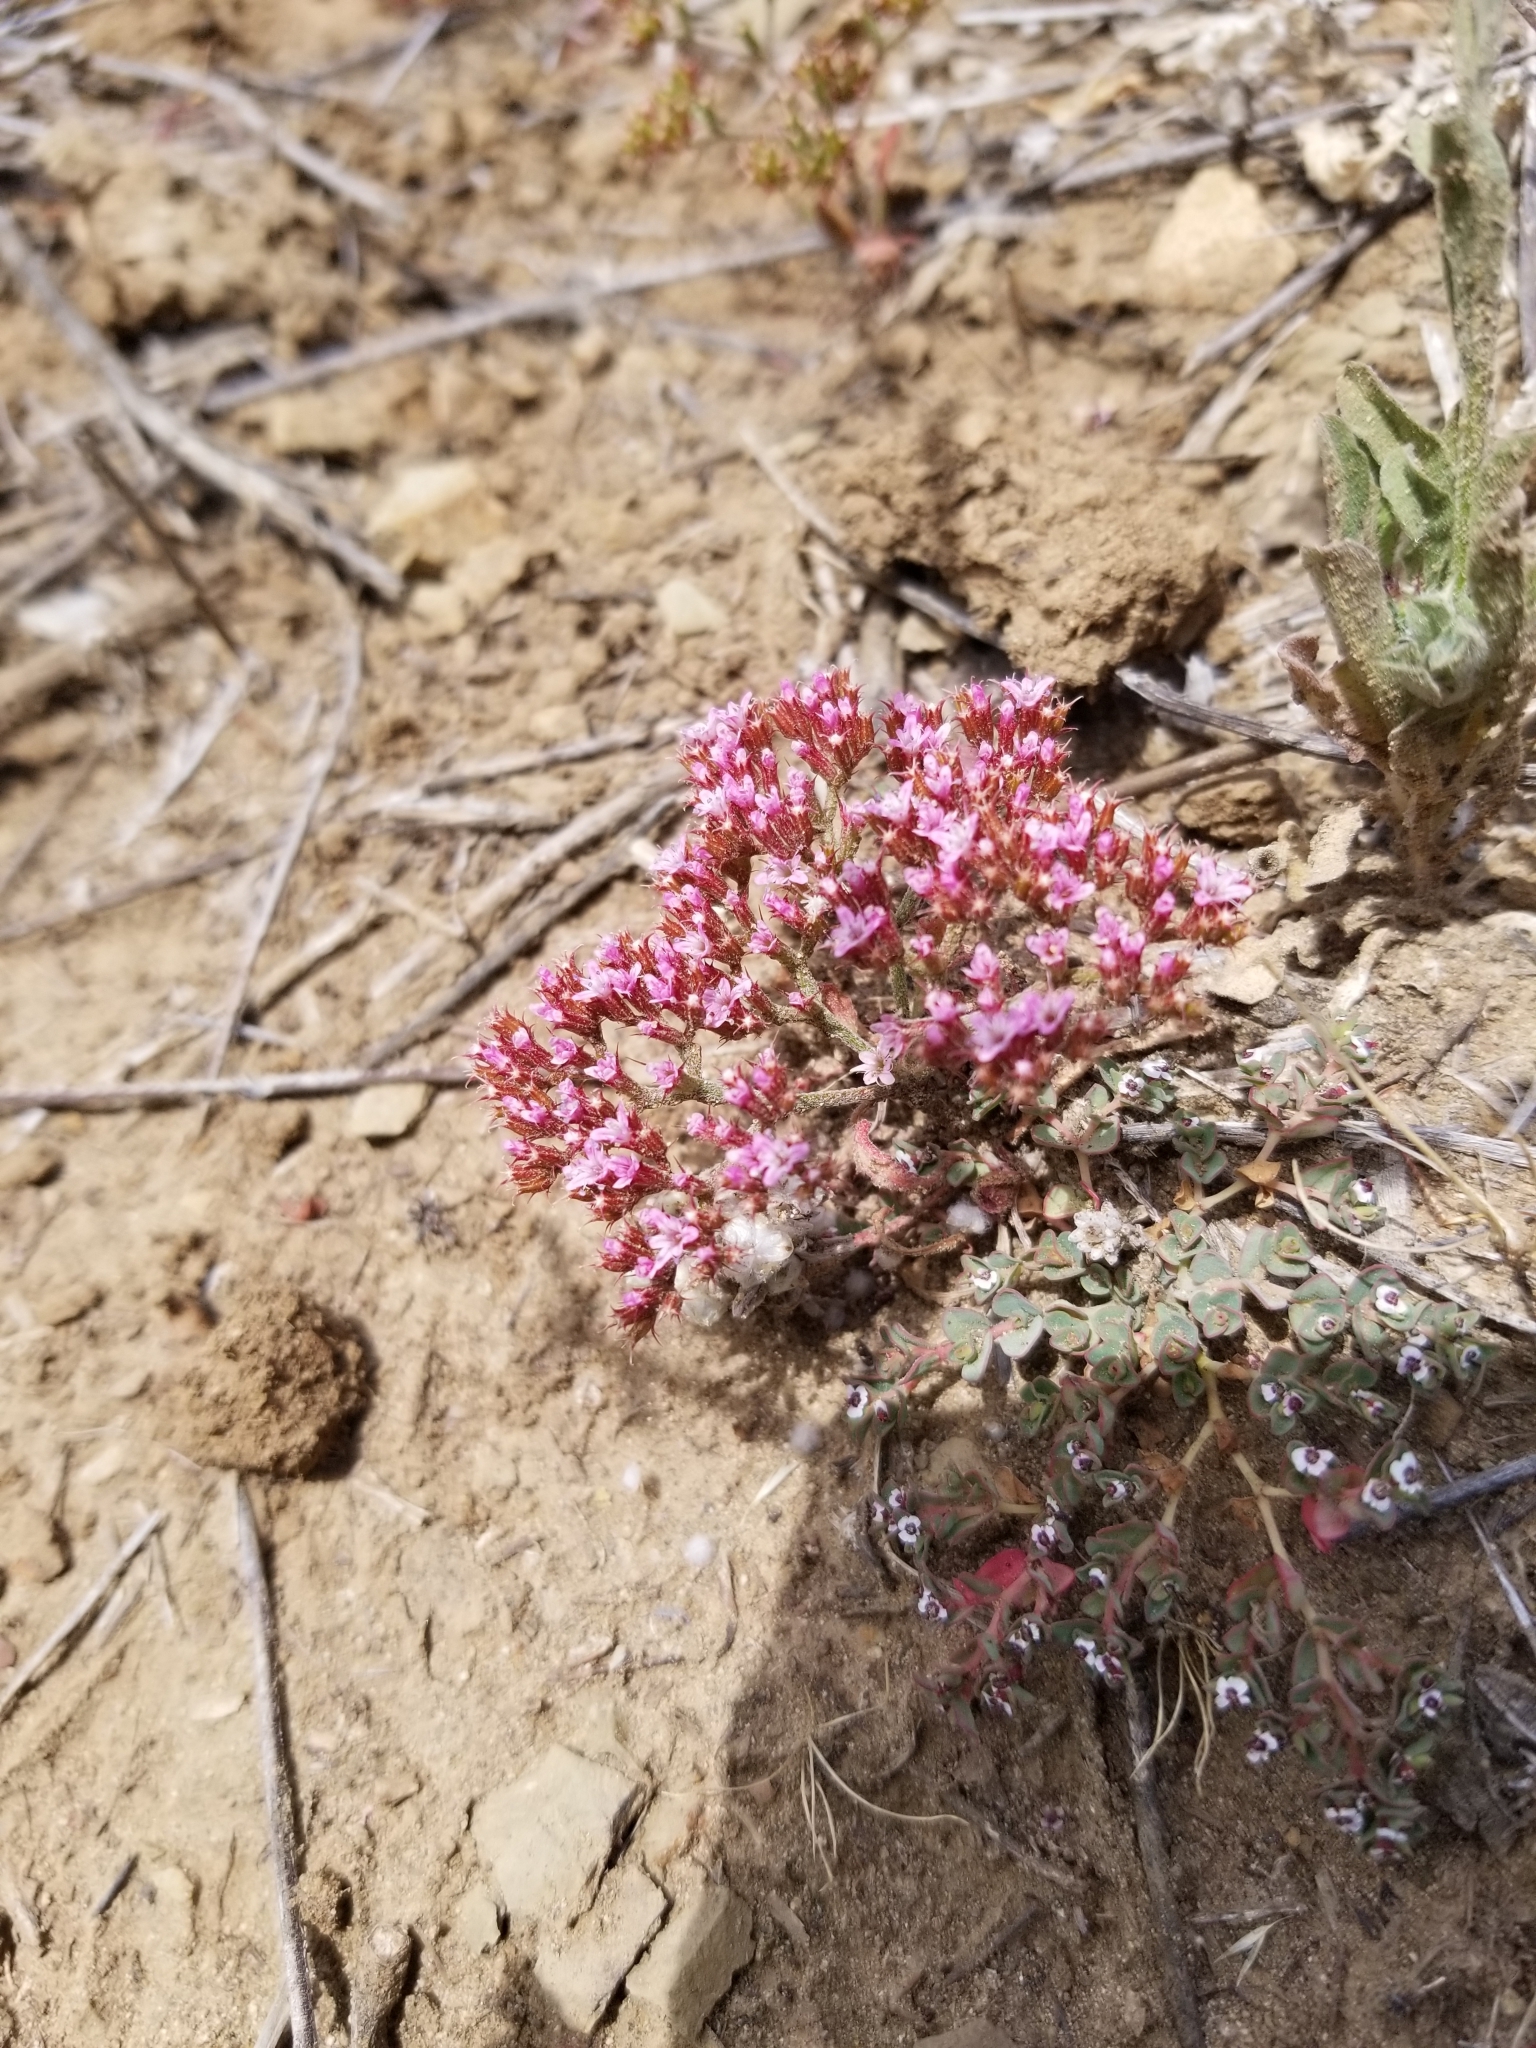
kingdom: Plantae
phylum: Tracheophyta
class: Magnoliopsida
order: Caryophyllales
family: Polygonaceae
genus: Chorizanthe
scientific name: Chorizanthe staticoides
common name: Turkish rugging
